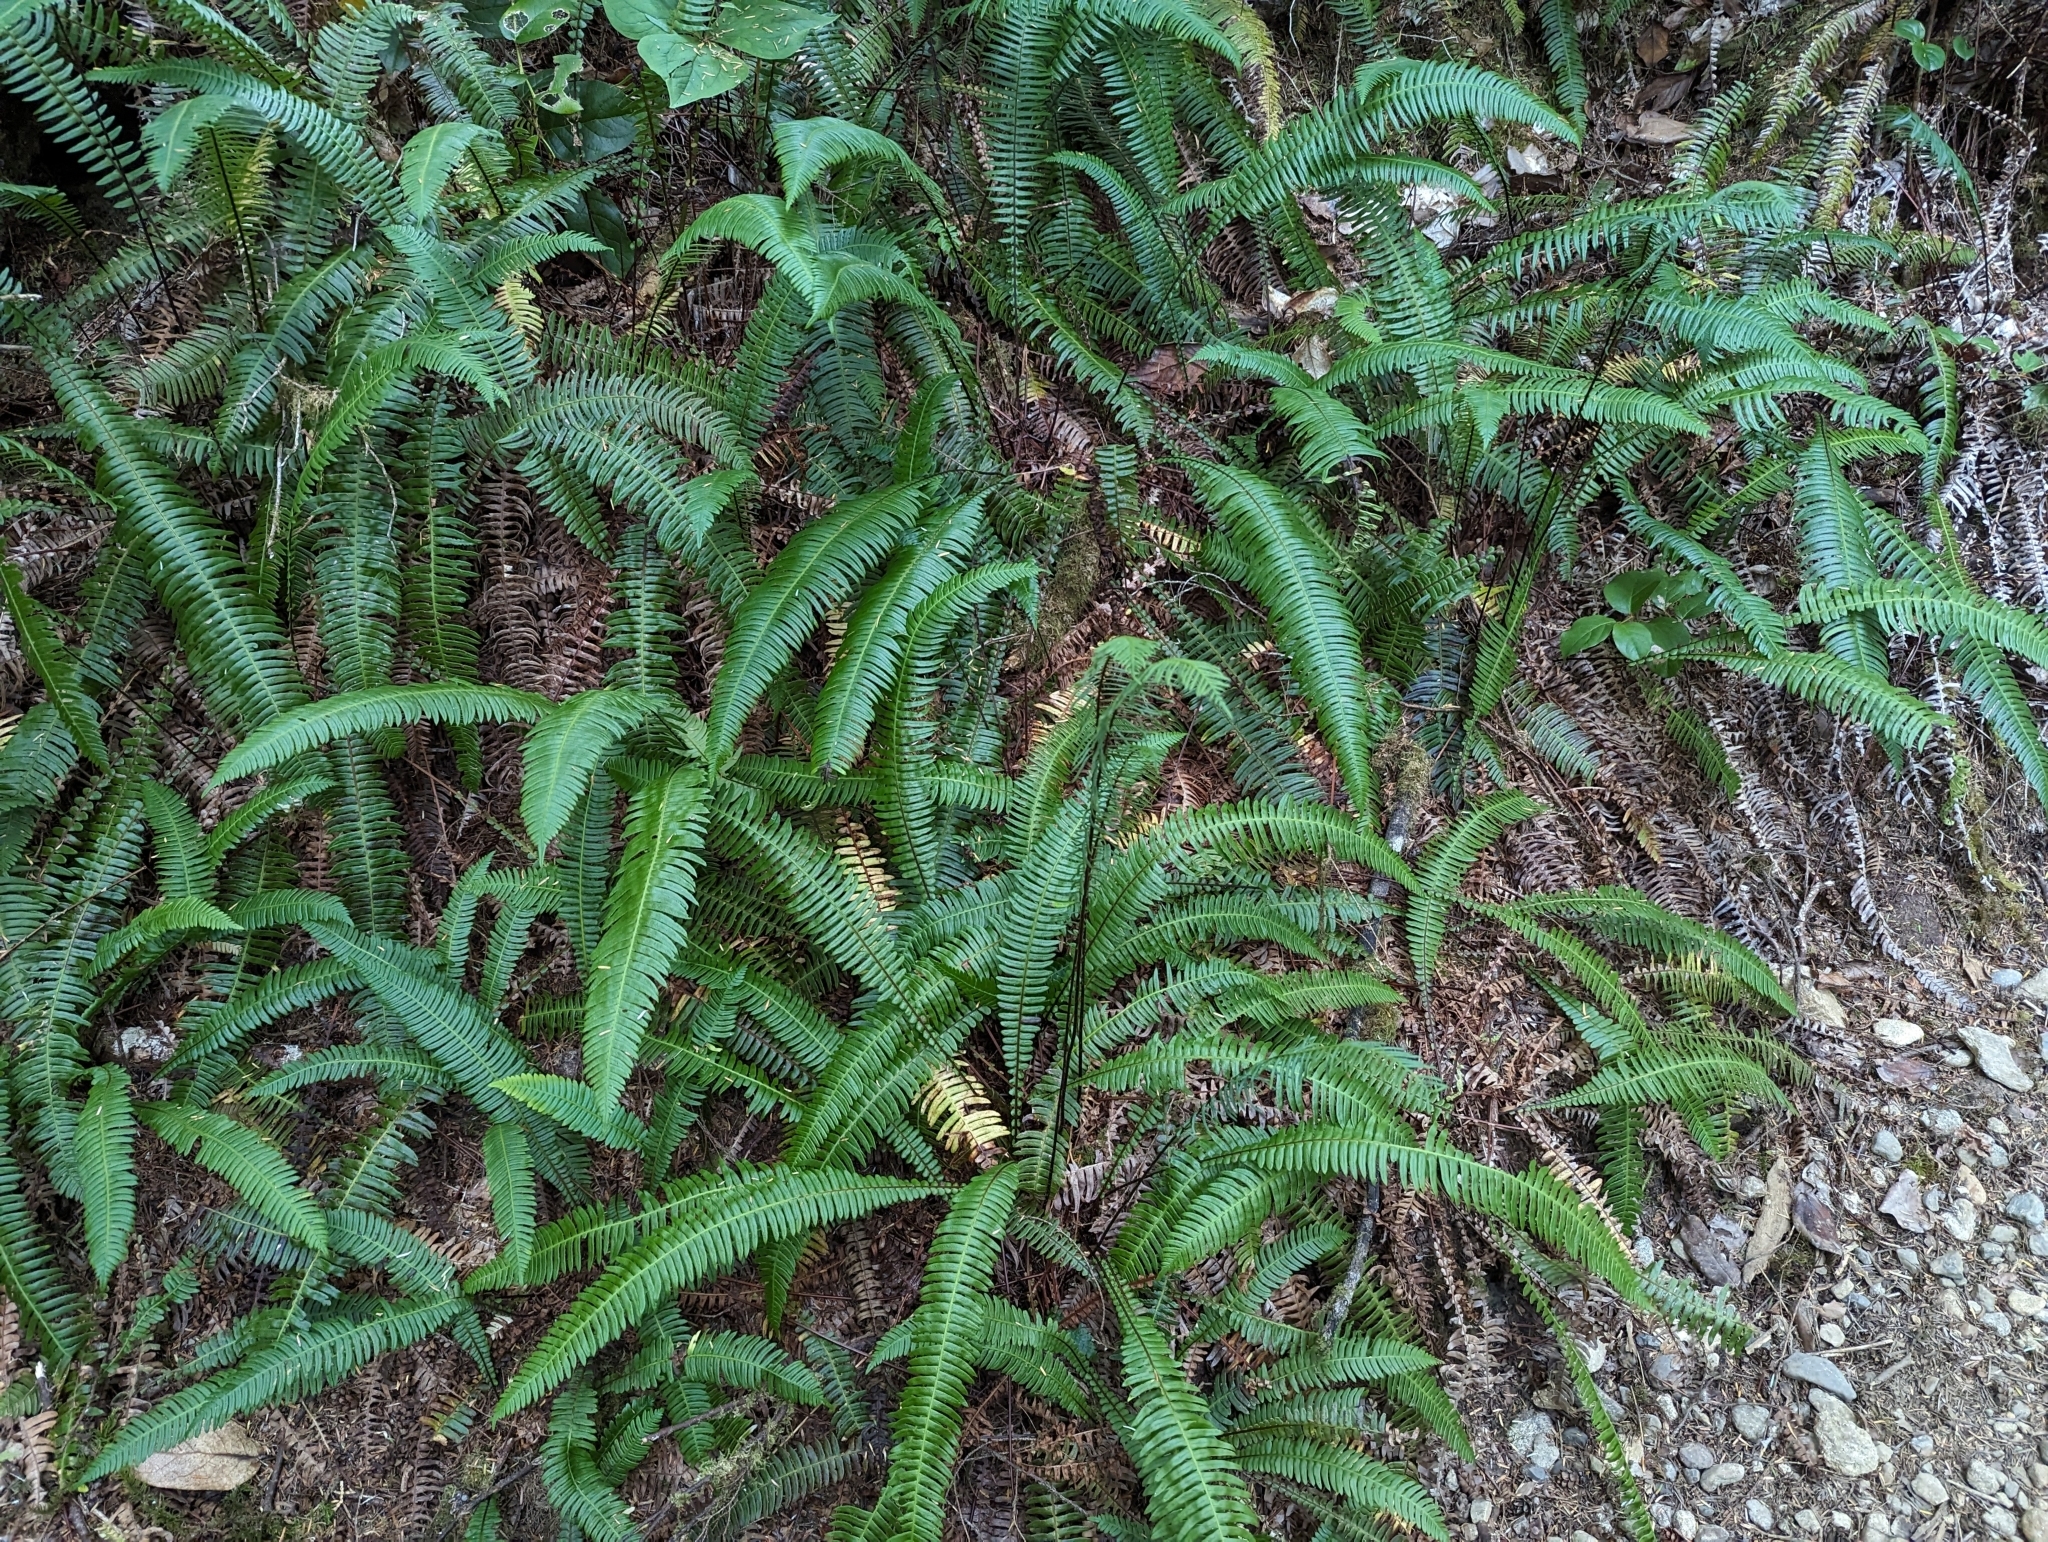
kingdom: Plantae
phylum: Tracheophyta
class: Polypodiopsida
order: Polypodiales
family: Blechnaceae
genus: Struthiopteris
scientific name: Struthiopteris spicant
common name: Deer fern
